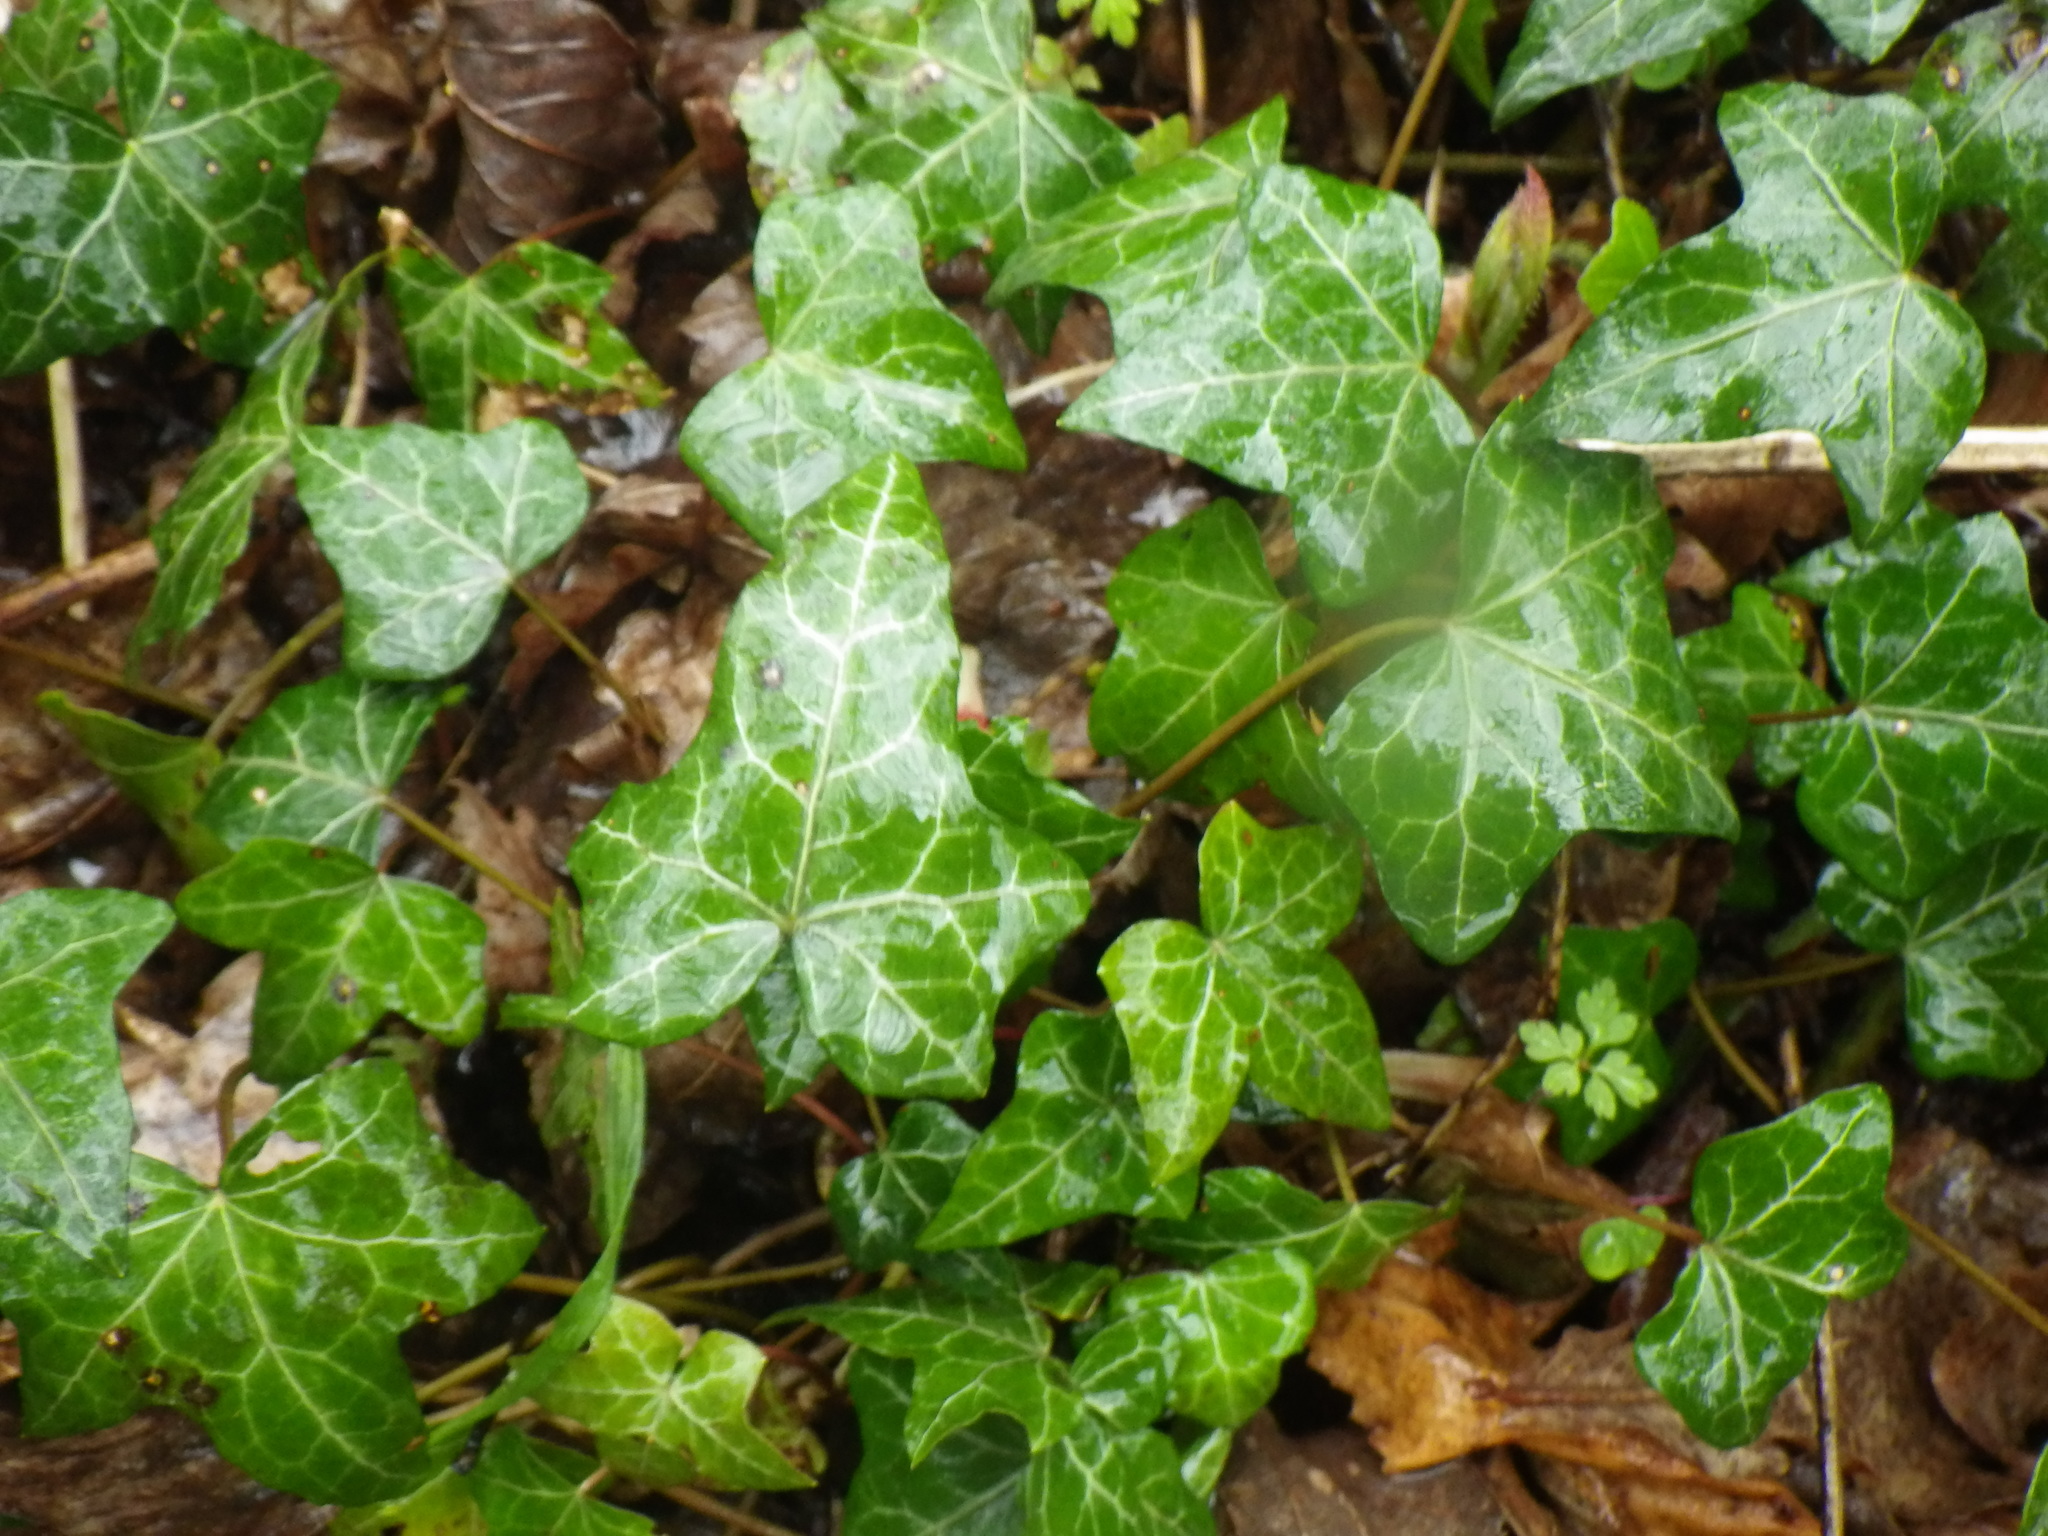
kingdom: Plantae
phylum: Tracheophyta
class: Magnoliopsida
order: Apiales
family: Araliaceae
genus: Hedera
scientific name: Hedera helix
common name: Ivy
